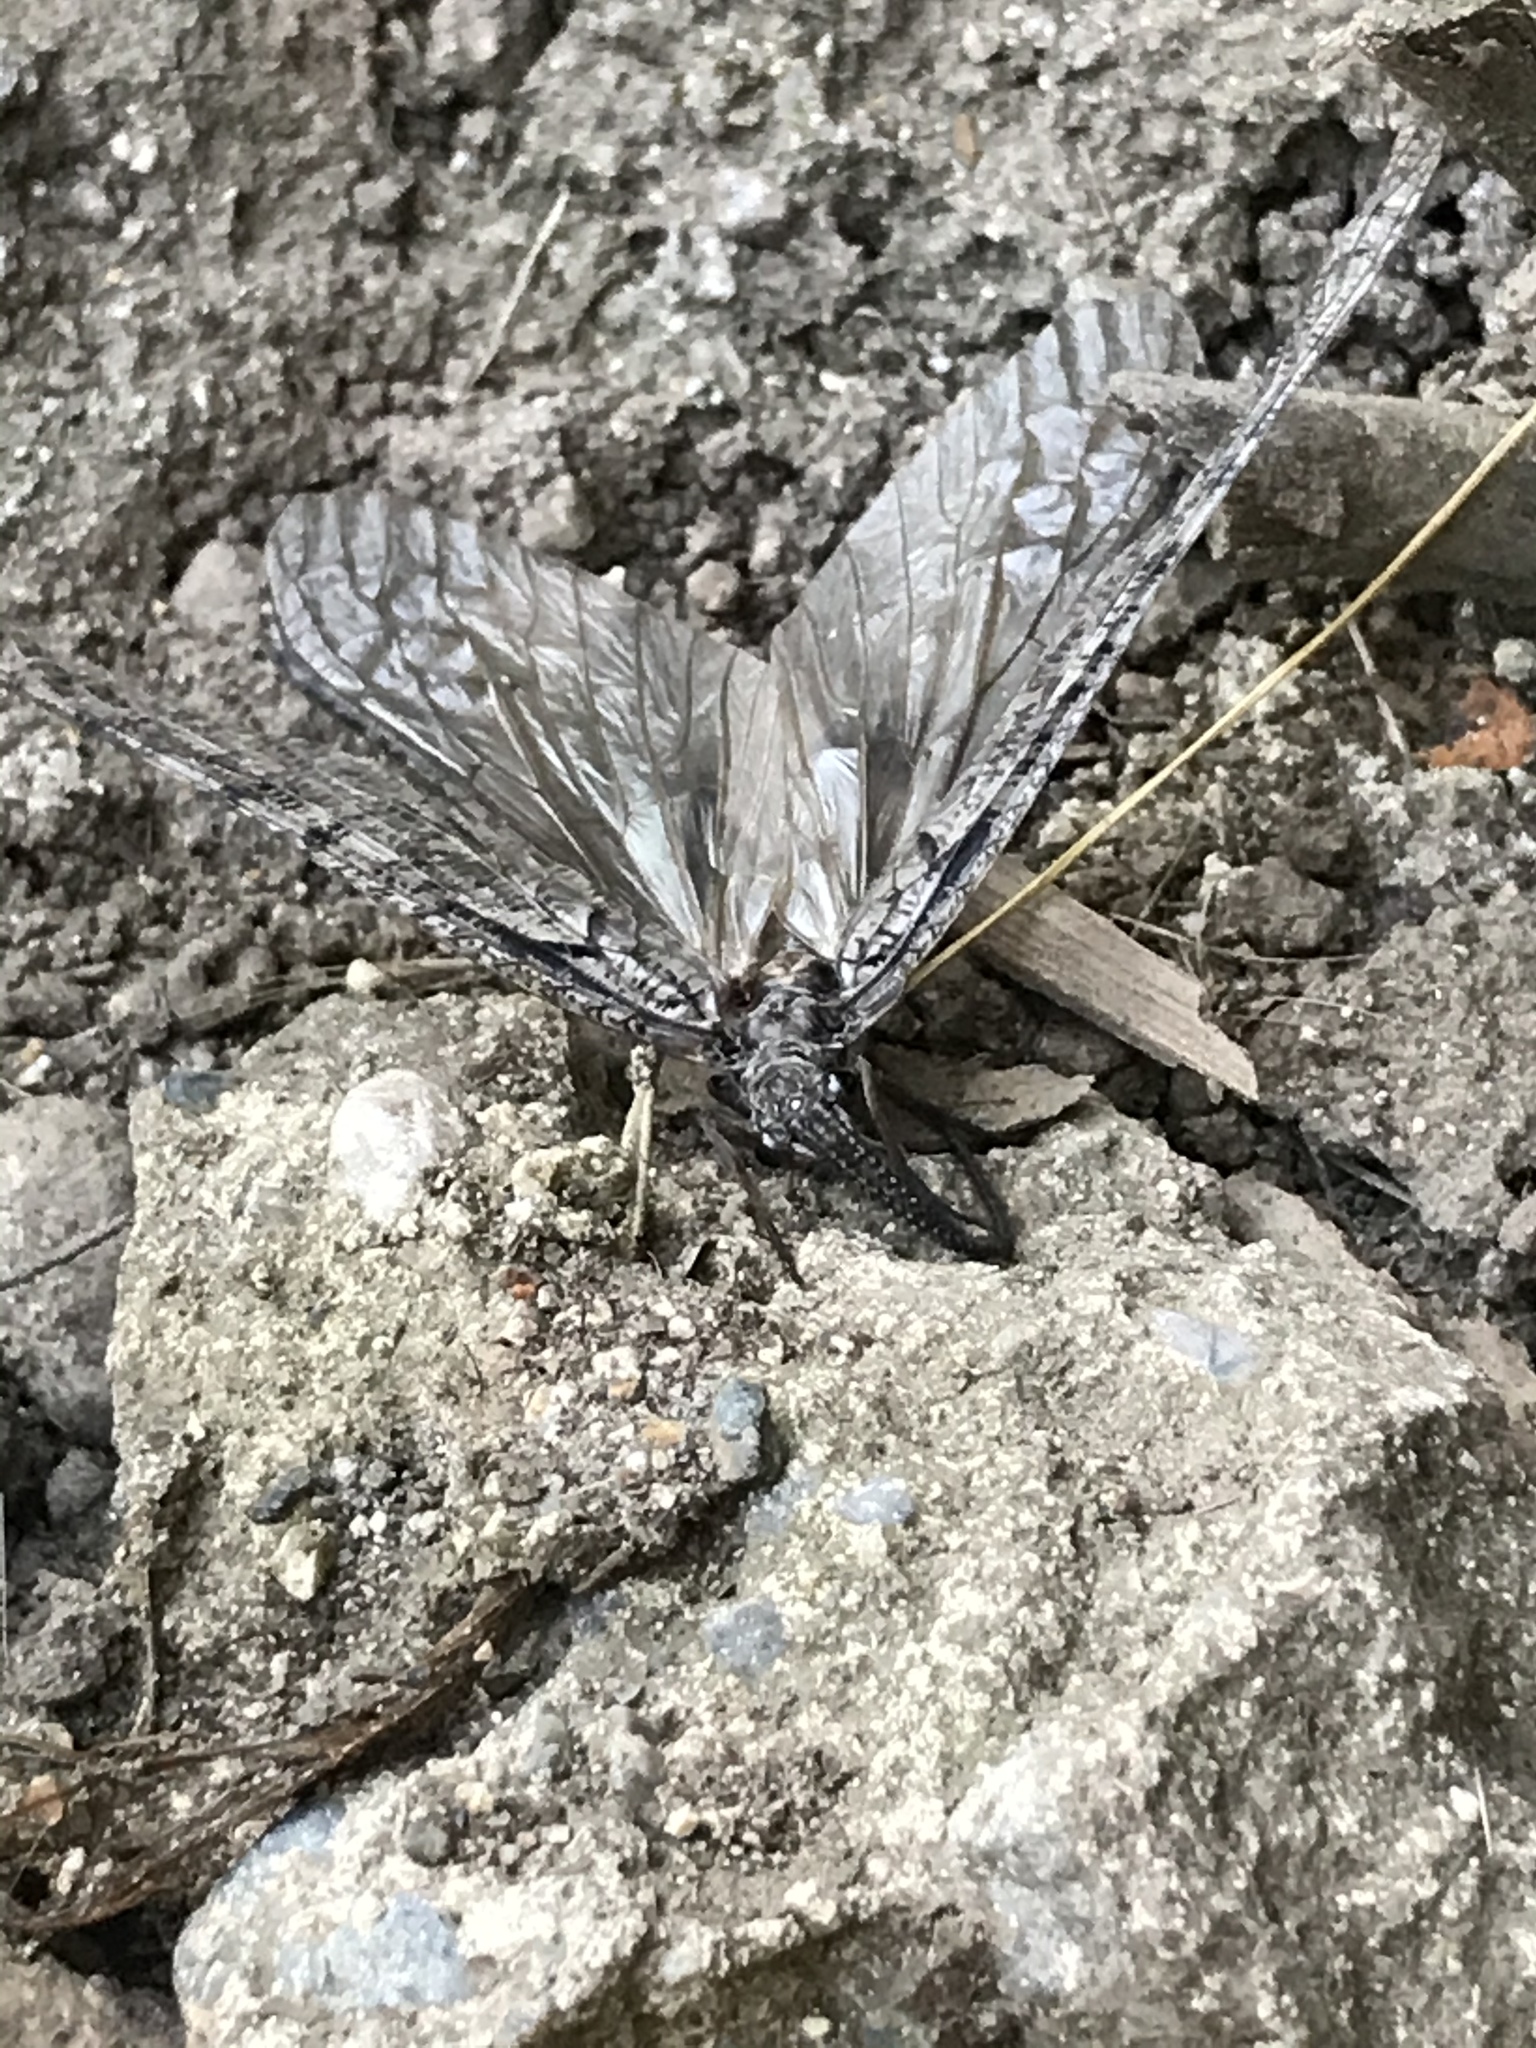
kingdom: Animalia
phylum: Arthropoda
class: Insecta
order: Megaloptera
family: Corydalidae
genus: Neohermes
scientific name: Neohermes californicus
